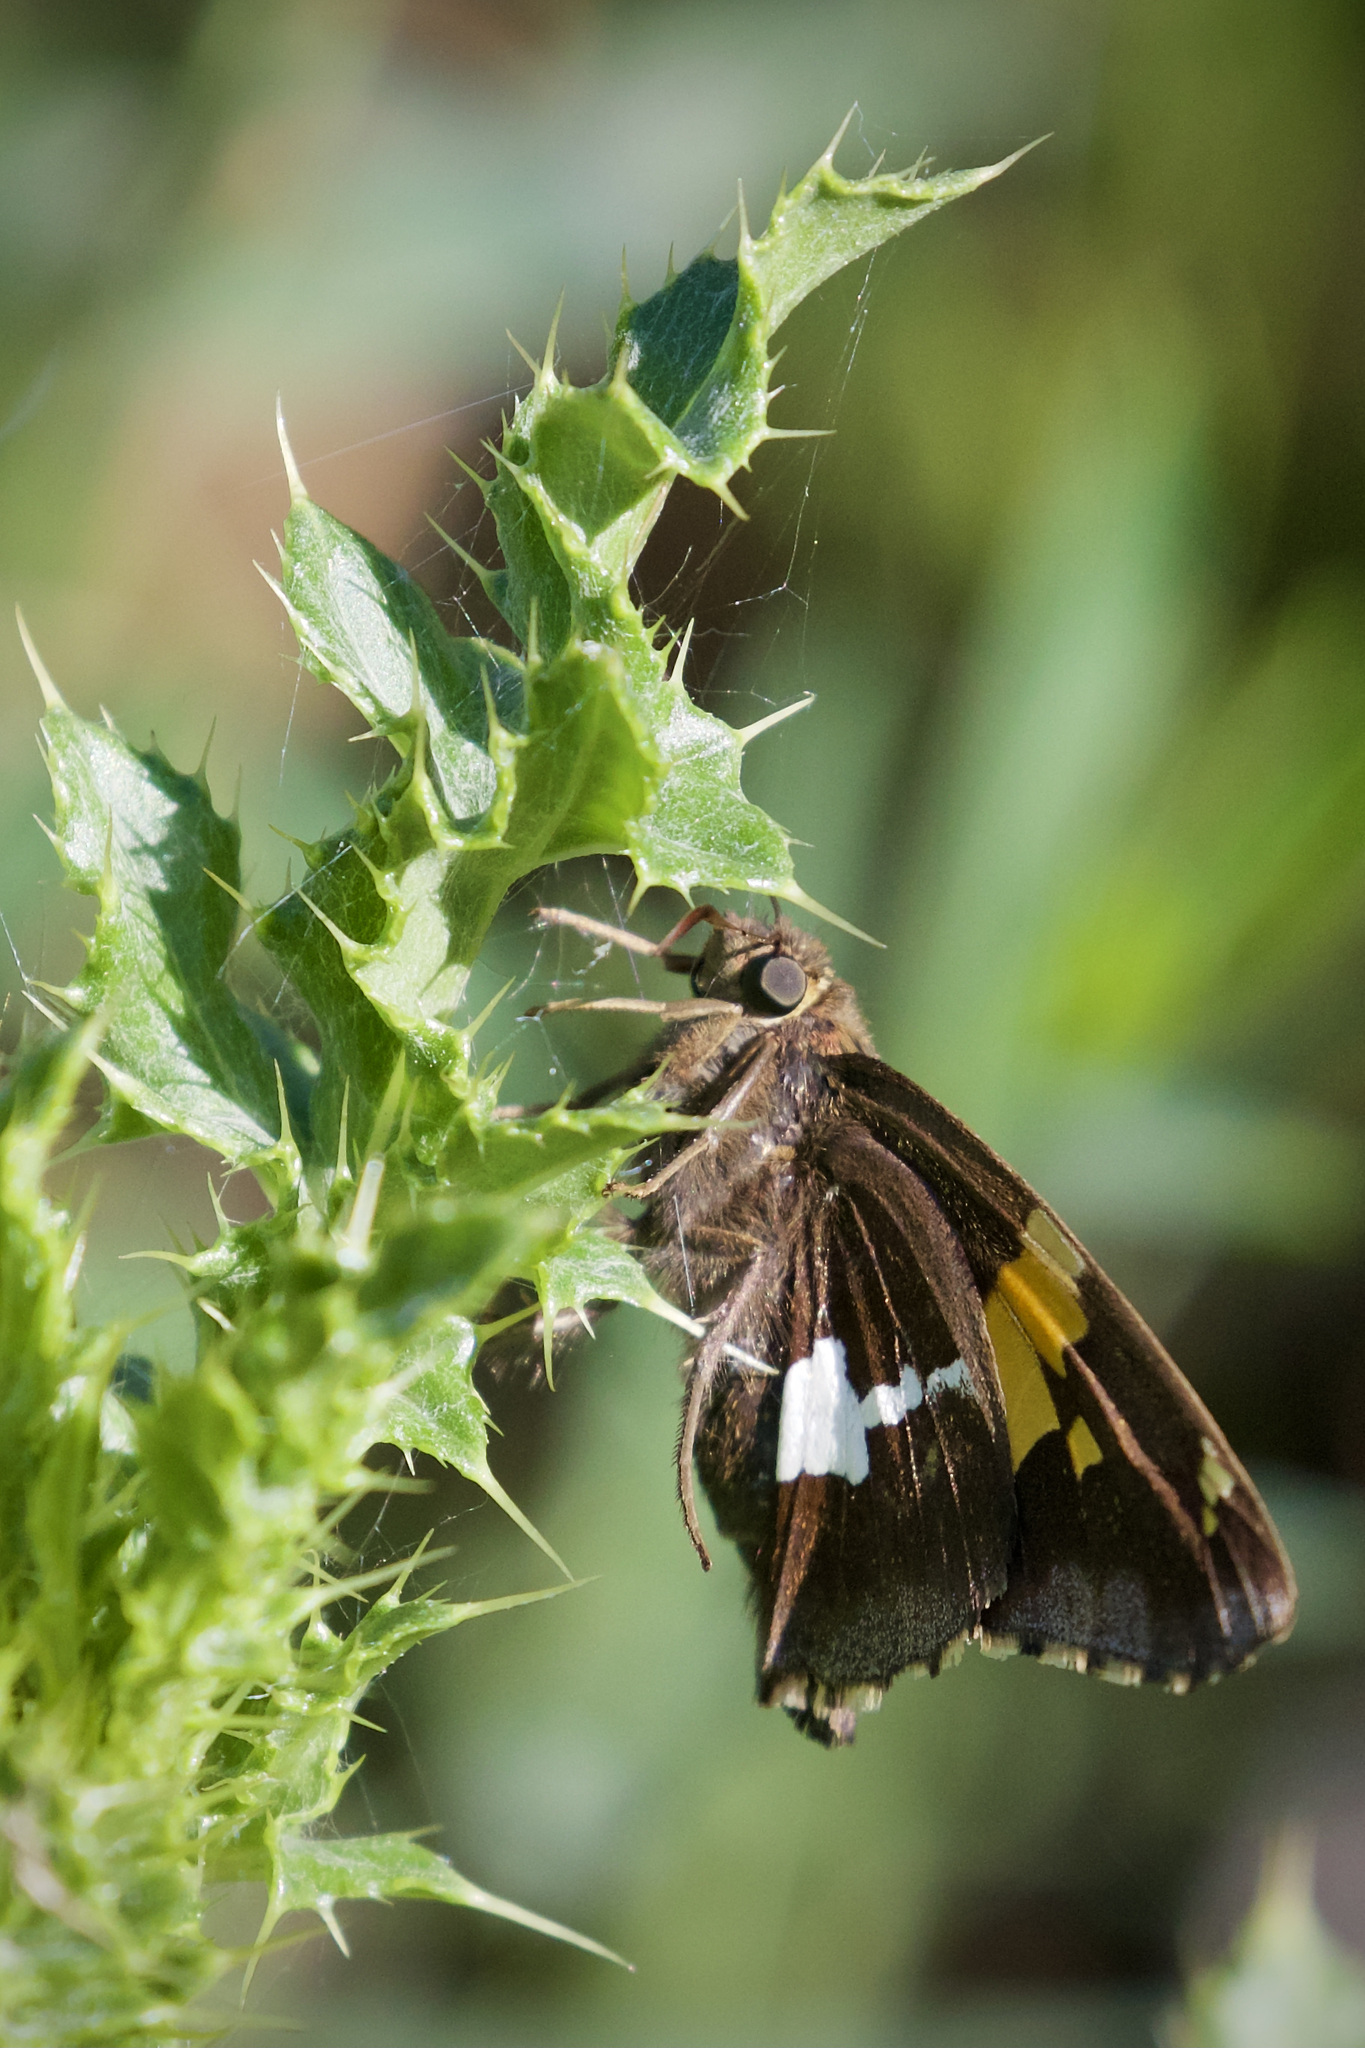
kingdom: Animalia
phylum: Arthropoda
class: Insecta
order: Lepidoptera
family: Hesperiidae
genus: Epargyreus
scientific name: Epargyreus clarus
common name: Silver-spotted skipper
